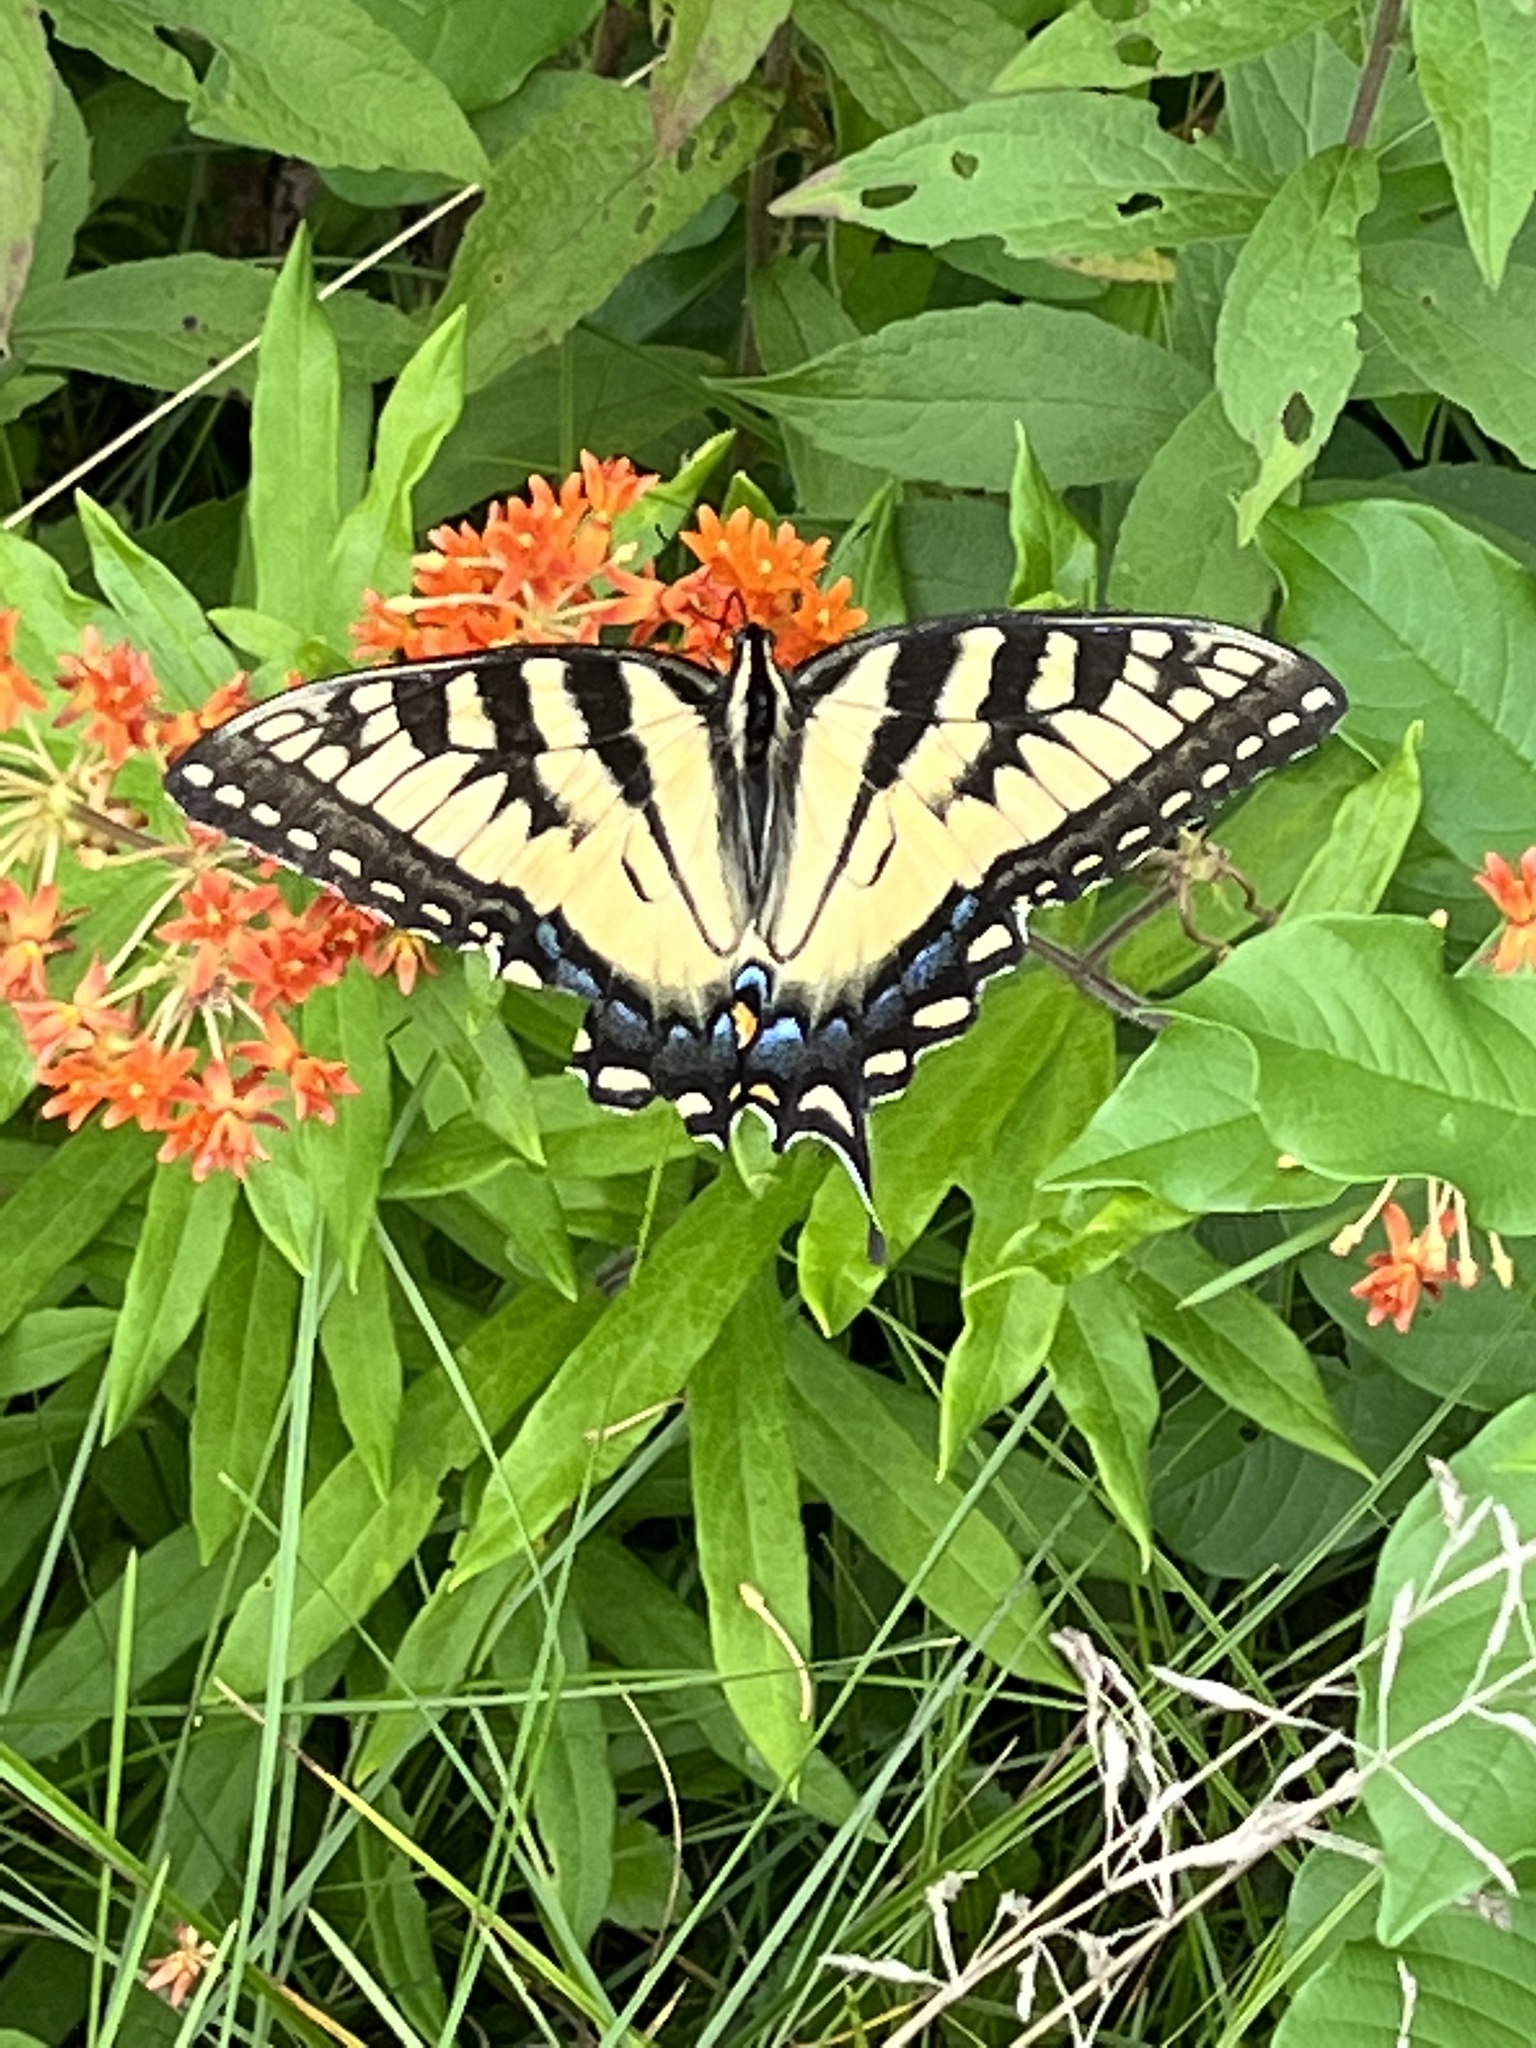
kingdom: Animalia
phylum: Arthropoda
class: Insecta
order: Lepidoptera
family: Papilionidae
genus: Papilio
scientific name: Papilio glaucus
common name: Tiger swallowtail
